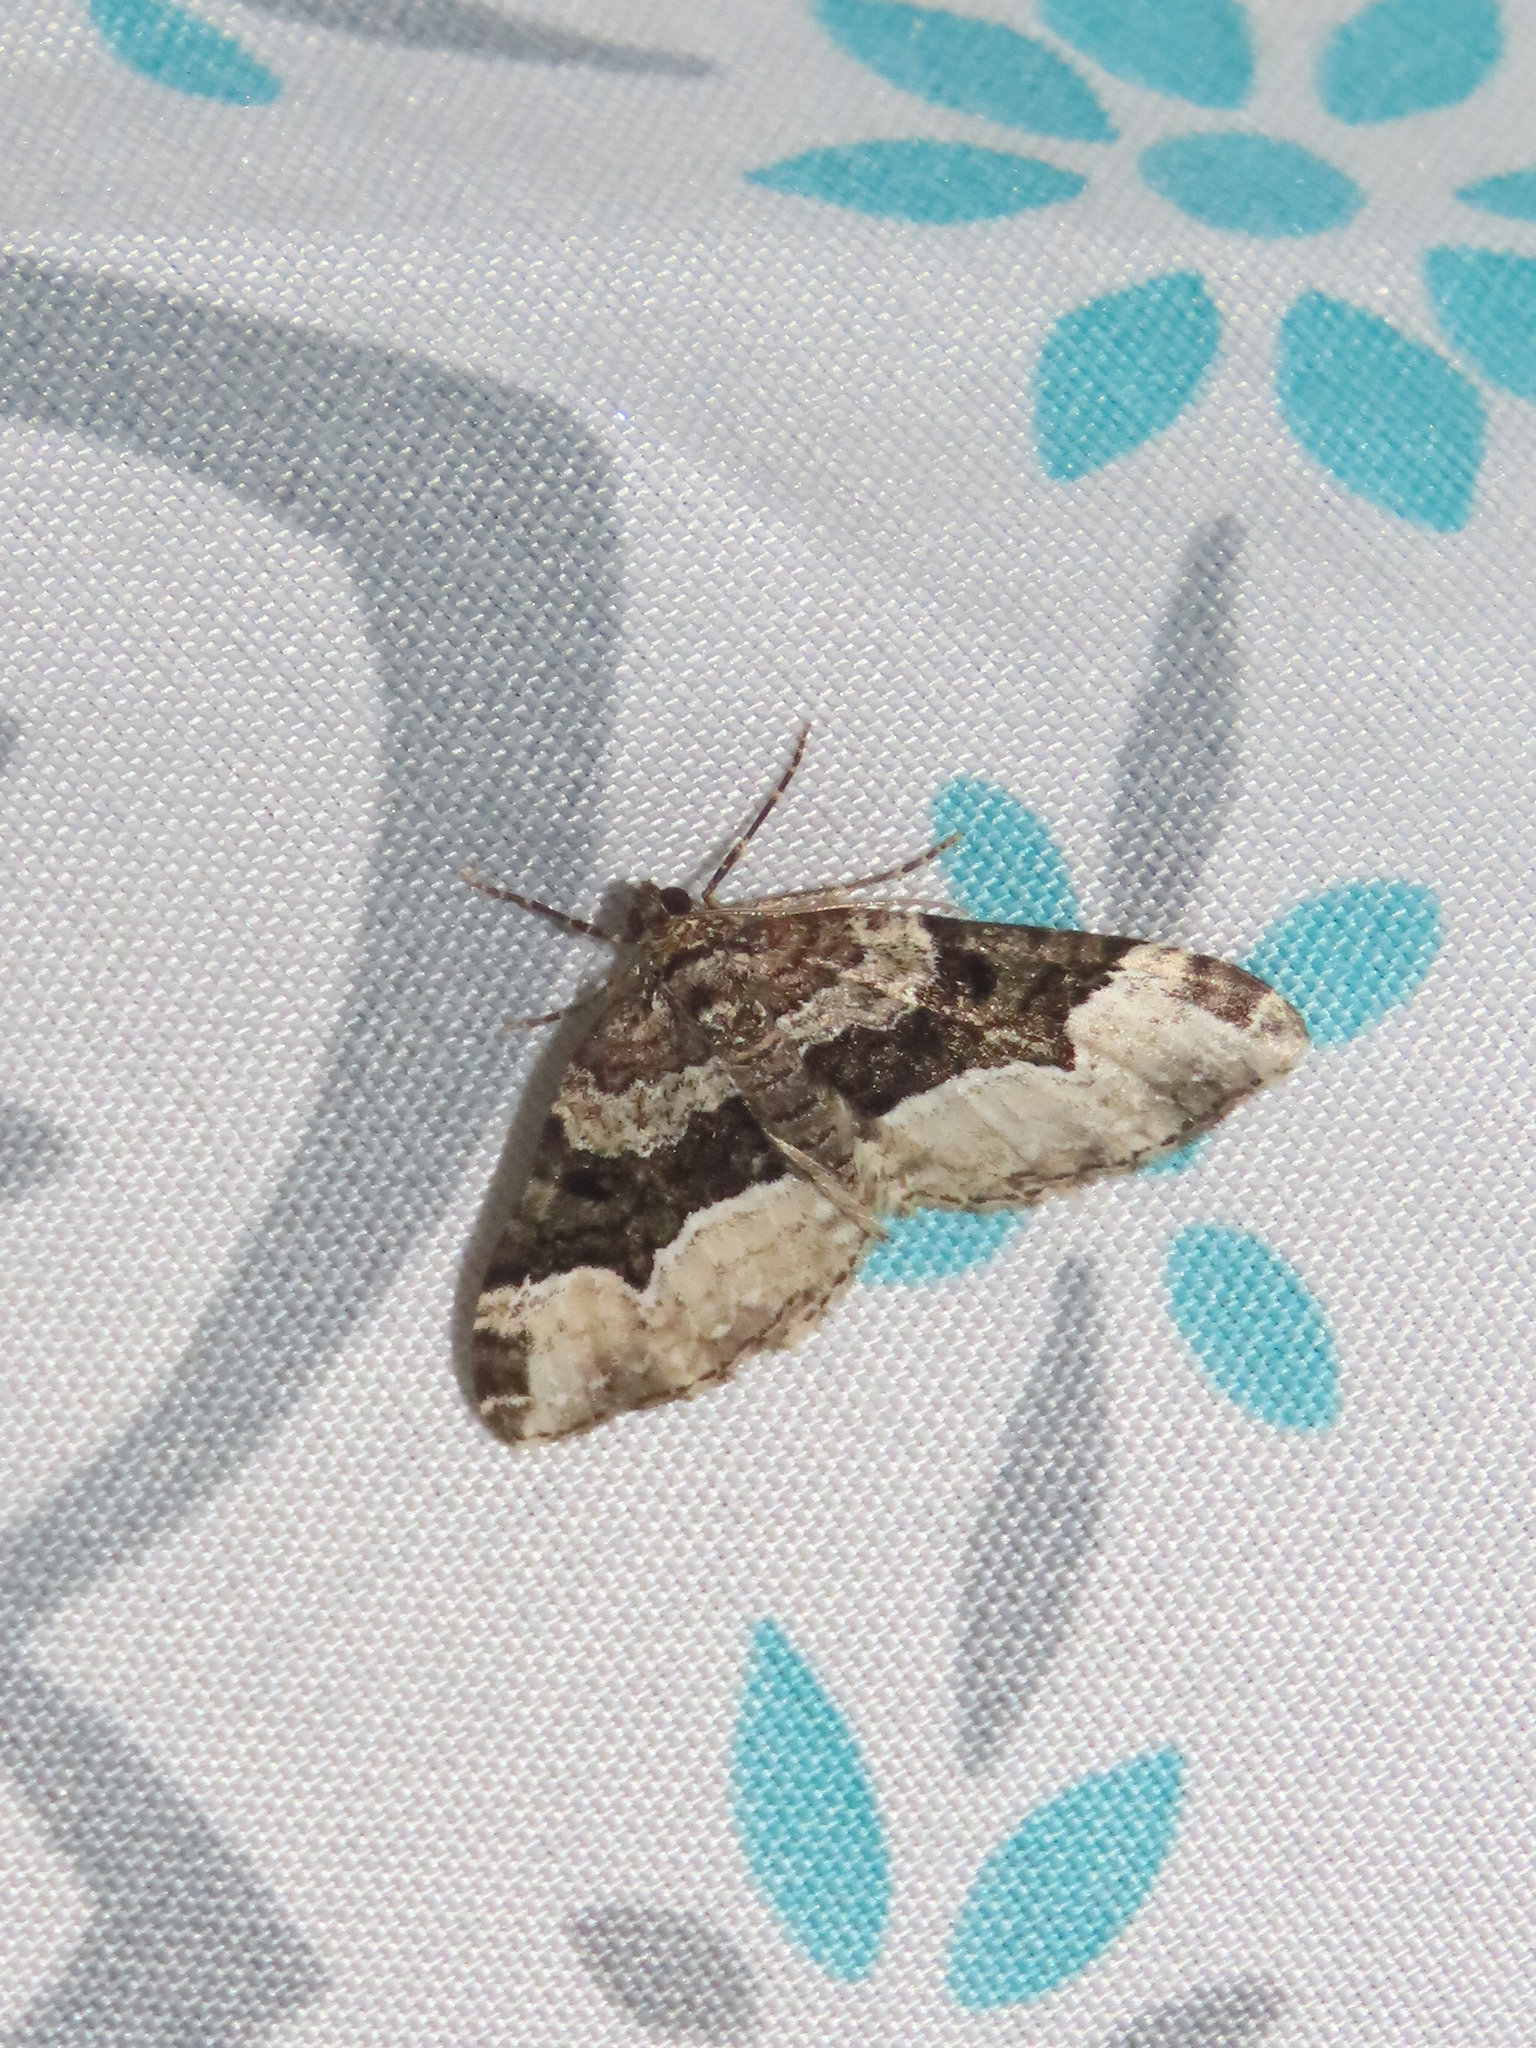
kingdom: Animalia
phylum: Arthropoda
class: Insecta
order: Lepidoptera
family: Geometridae
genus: Euphyia
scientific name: Euphyia intermediata
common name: Sharp-angled carpet
